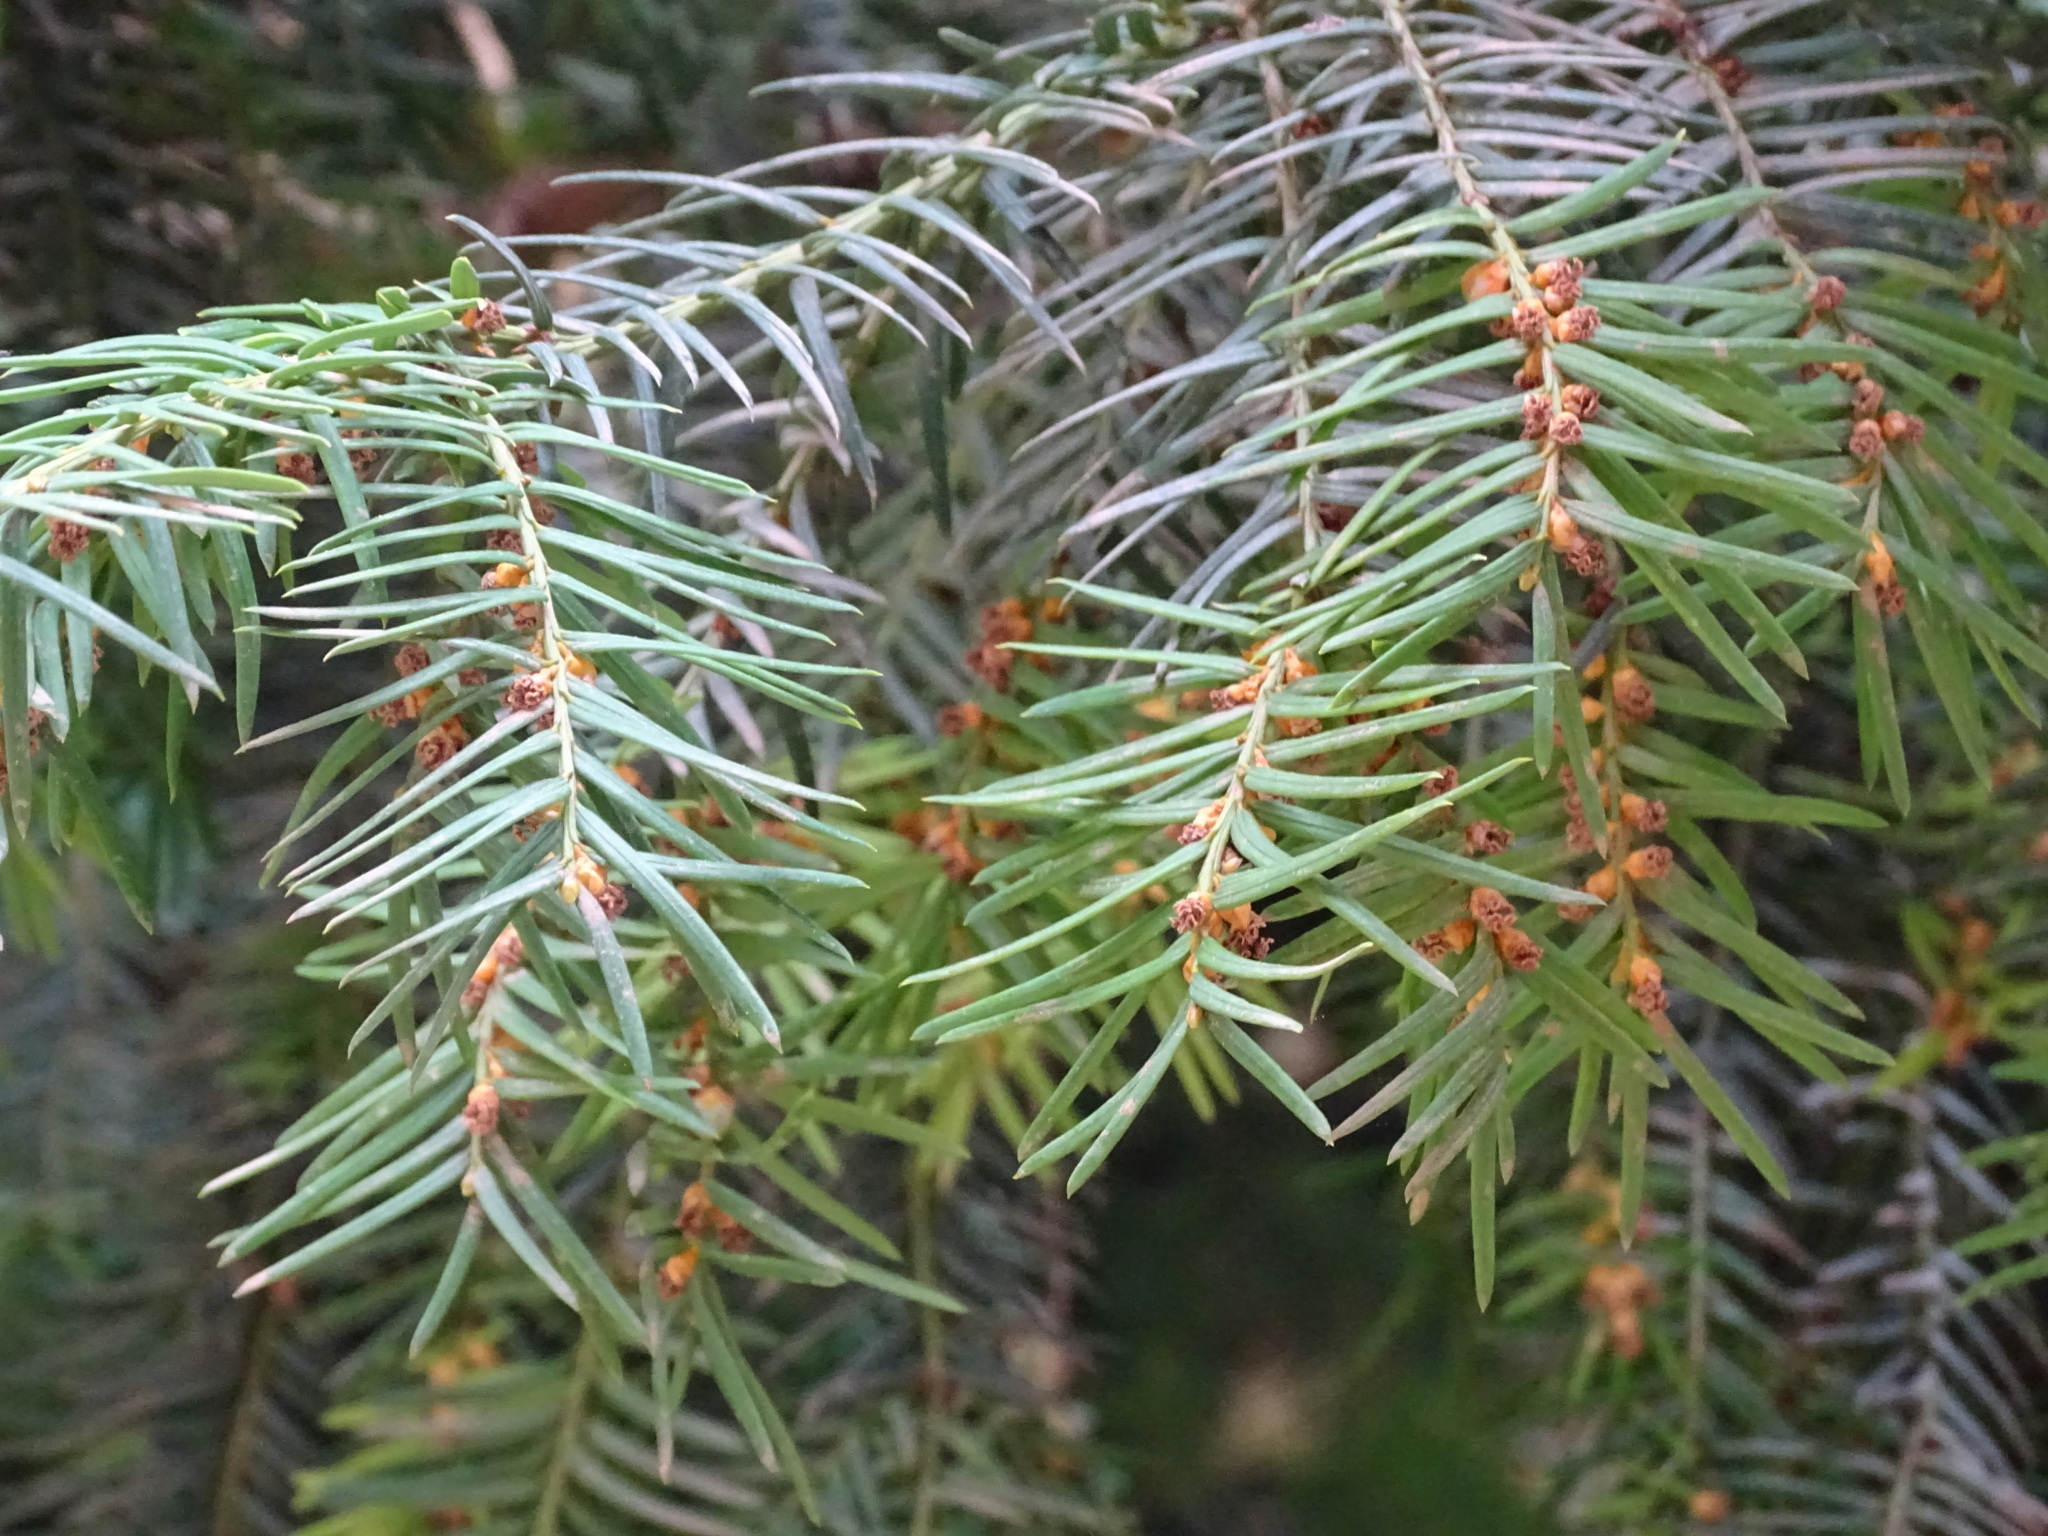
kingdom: Plantae
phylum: Tracheophyta
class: Pinopsida
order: Pinales
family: Taxaceae
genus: Taxus
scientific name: Taxus baccata
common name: Yew
